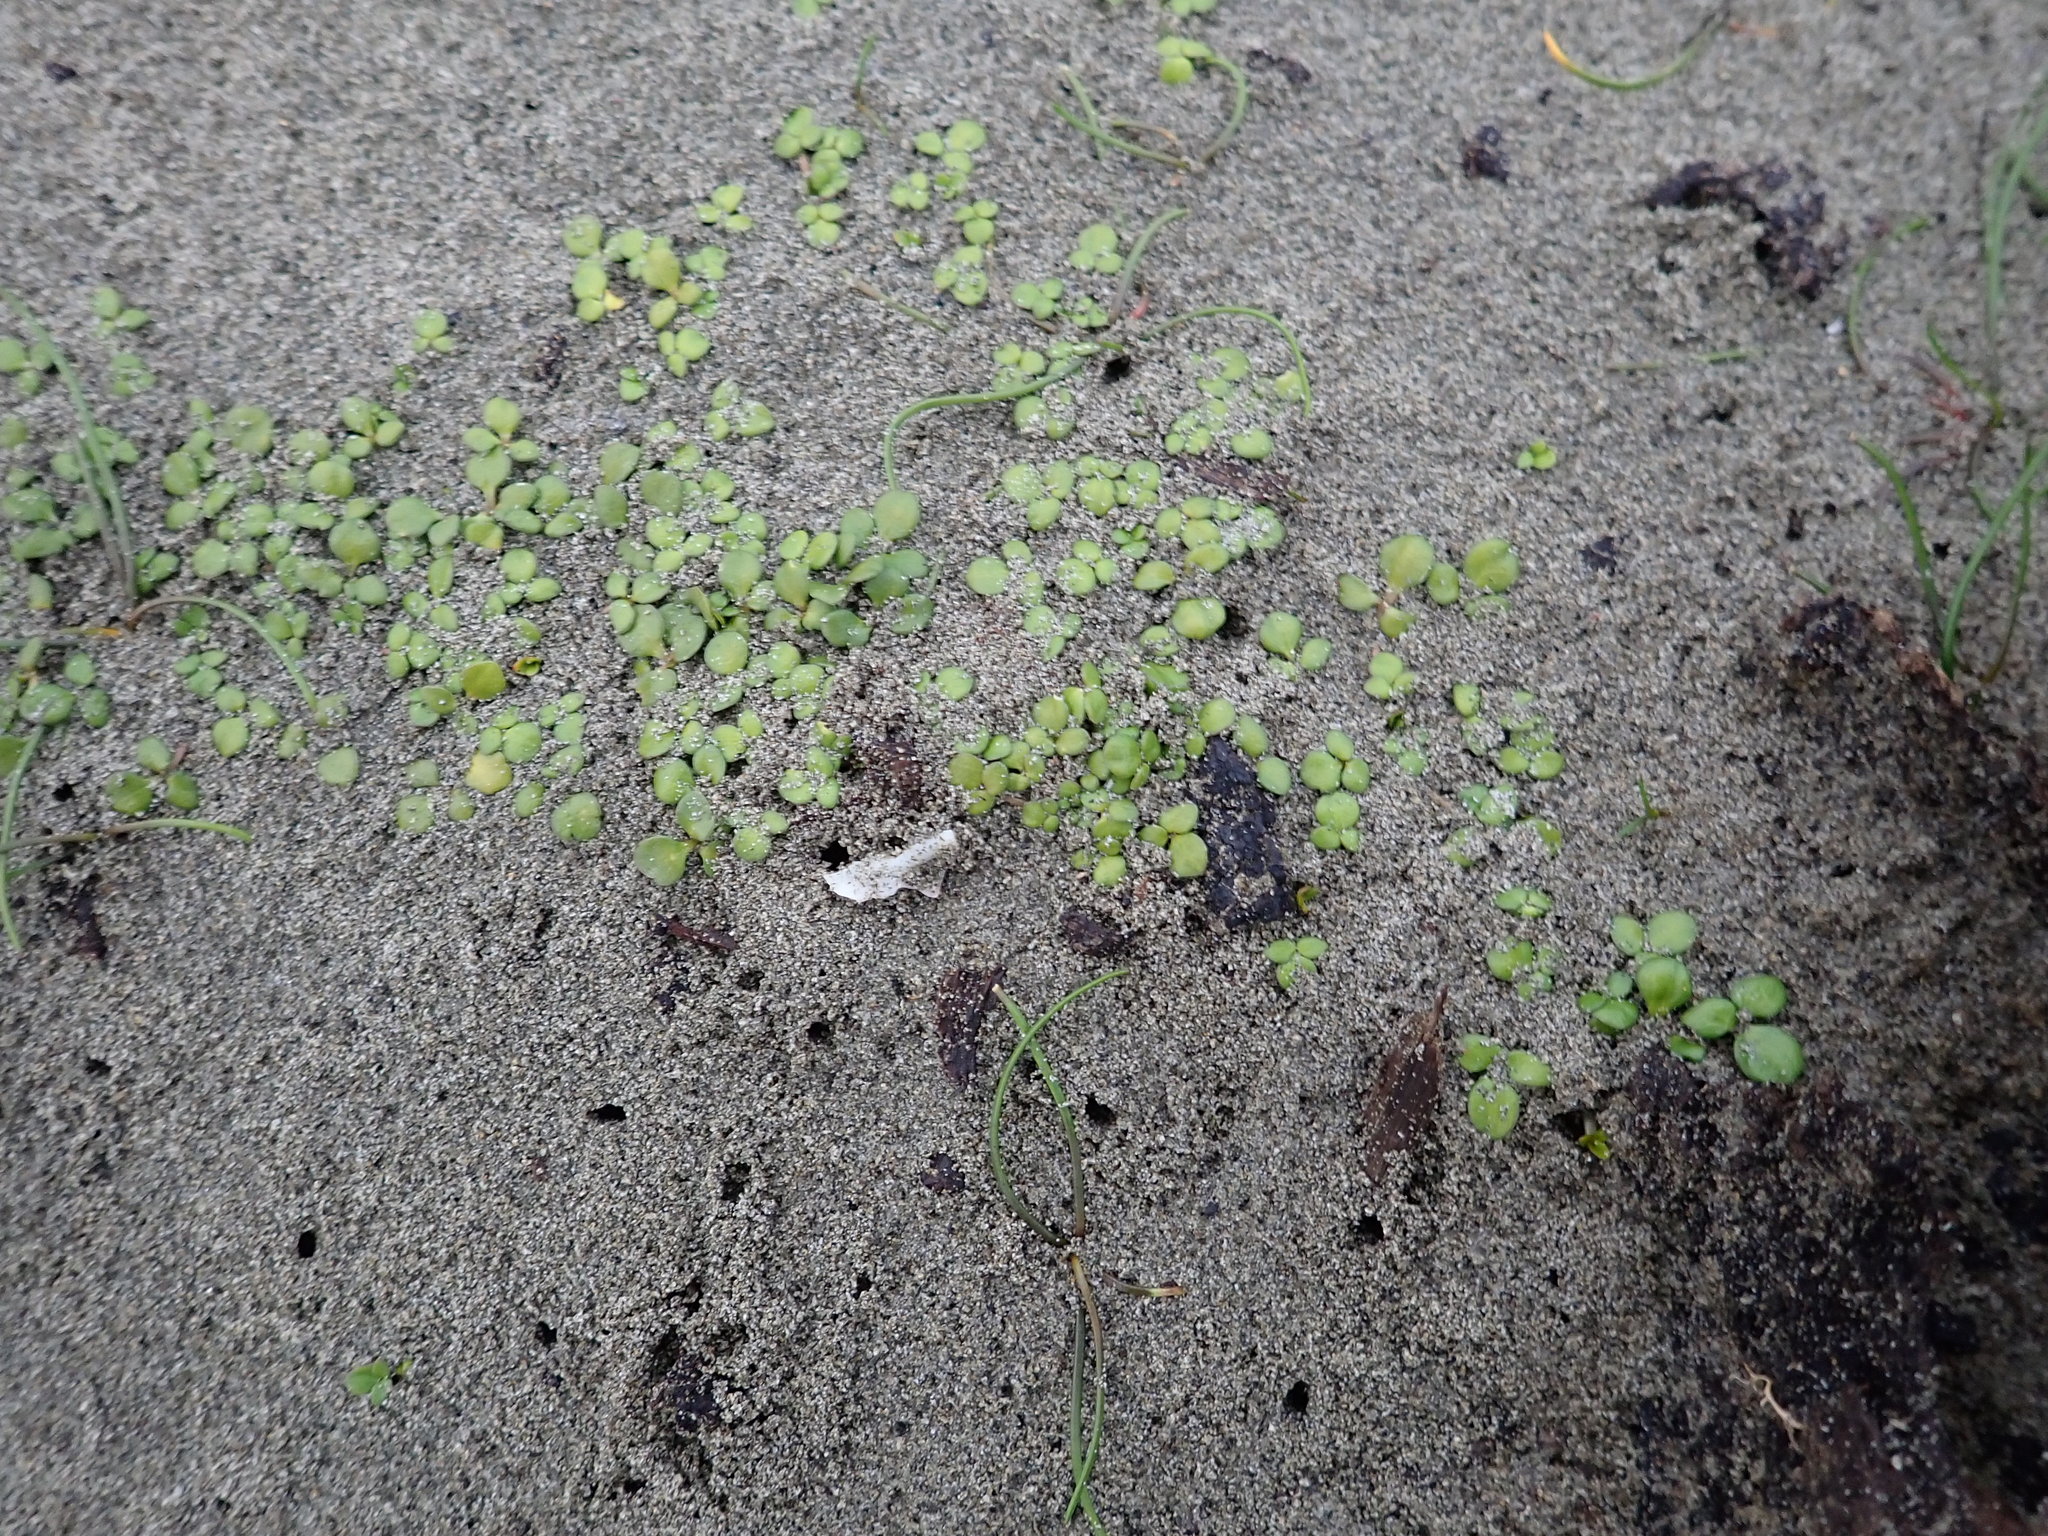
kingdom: Plantae
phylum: Tracheophyta
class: Magnoliopsida
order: Ranunculales
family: Ranunculaceae
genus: Ranunculus
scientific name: Ranunculus acaulis
